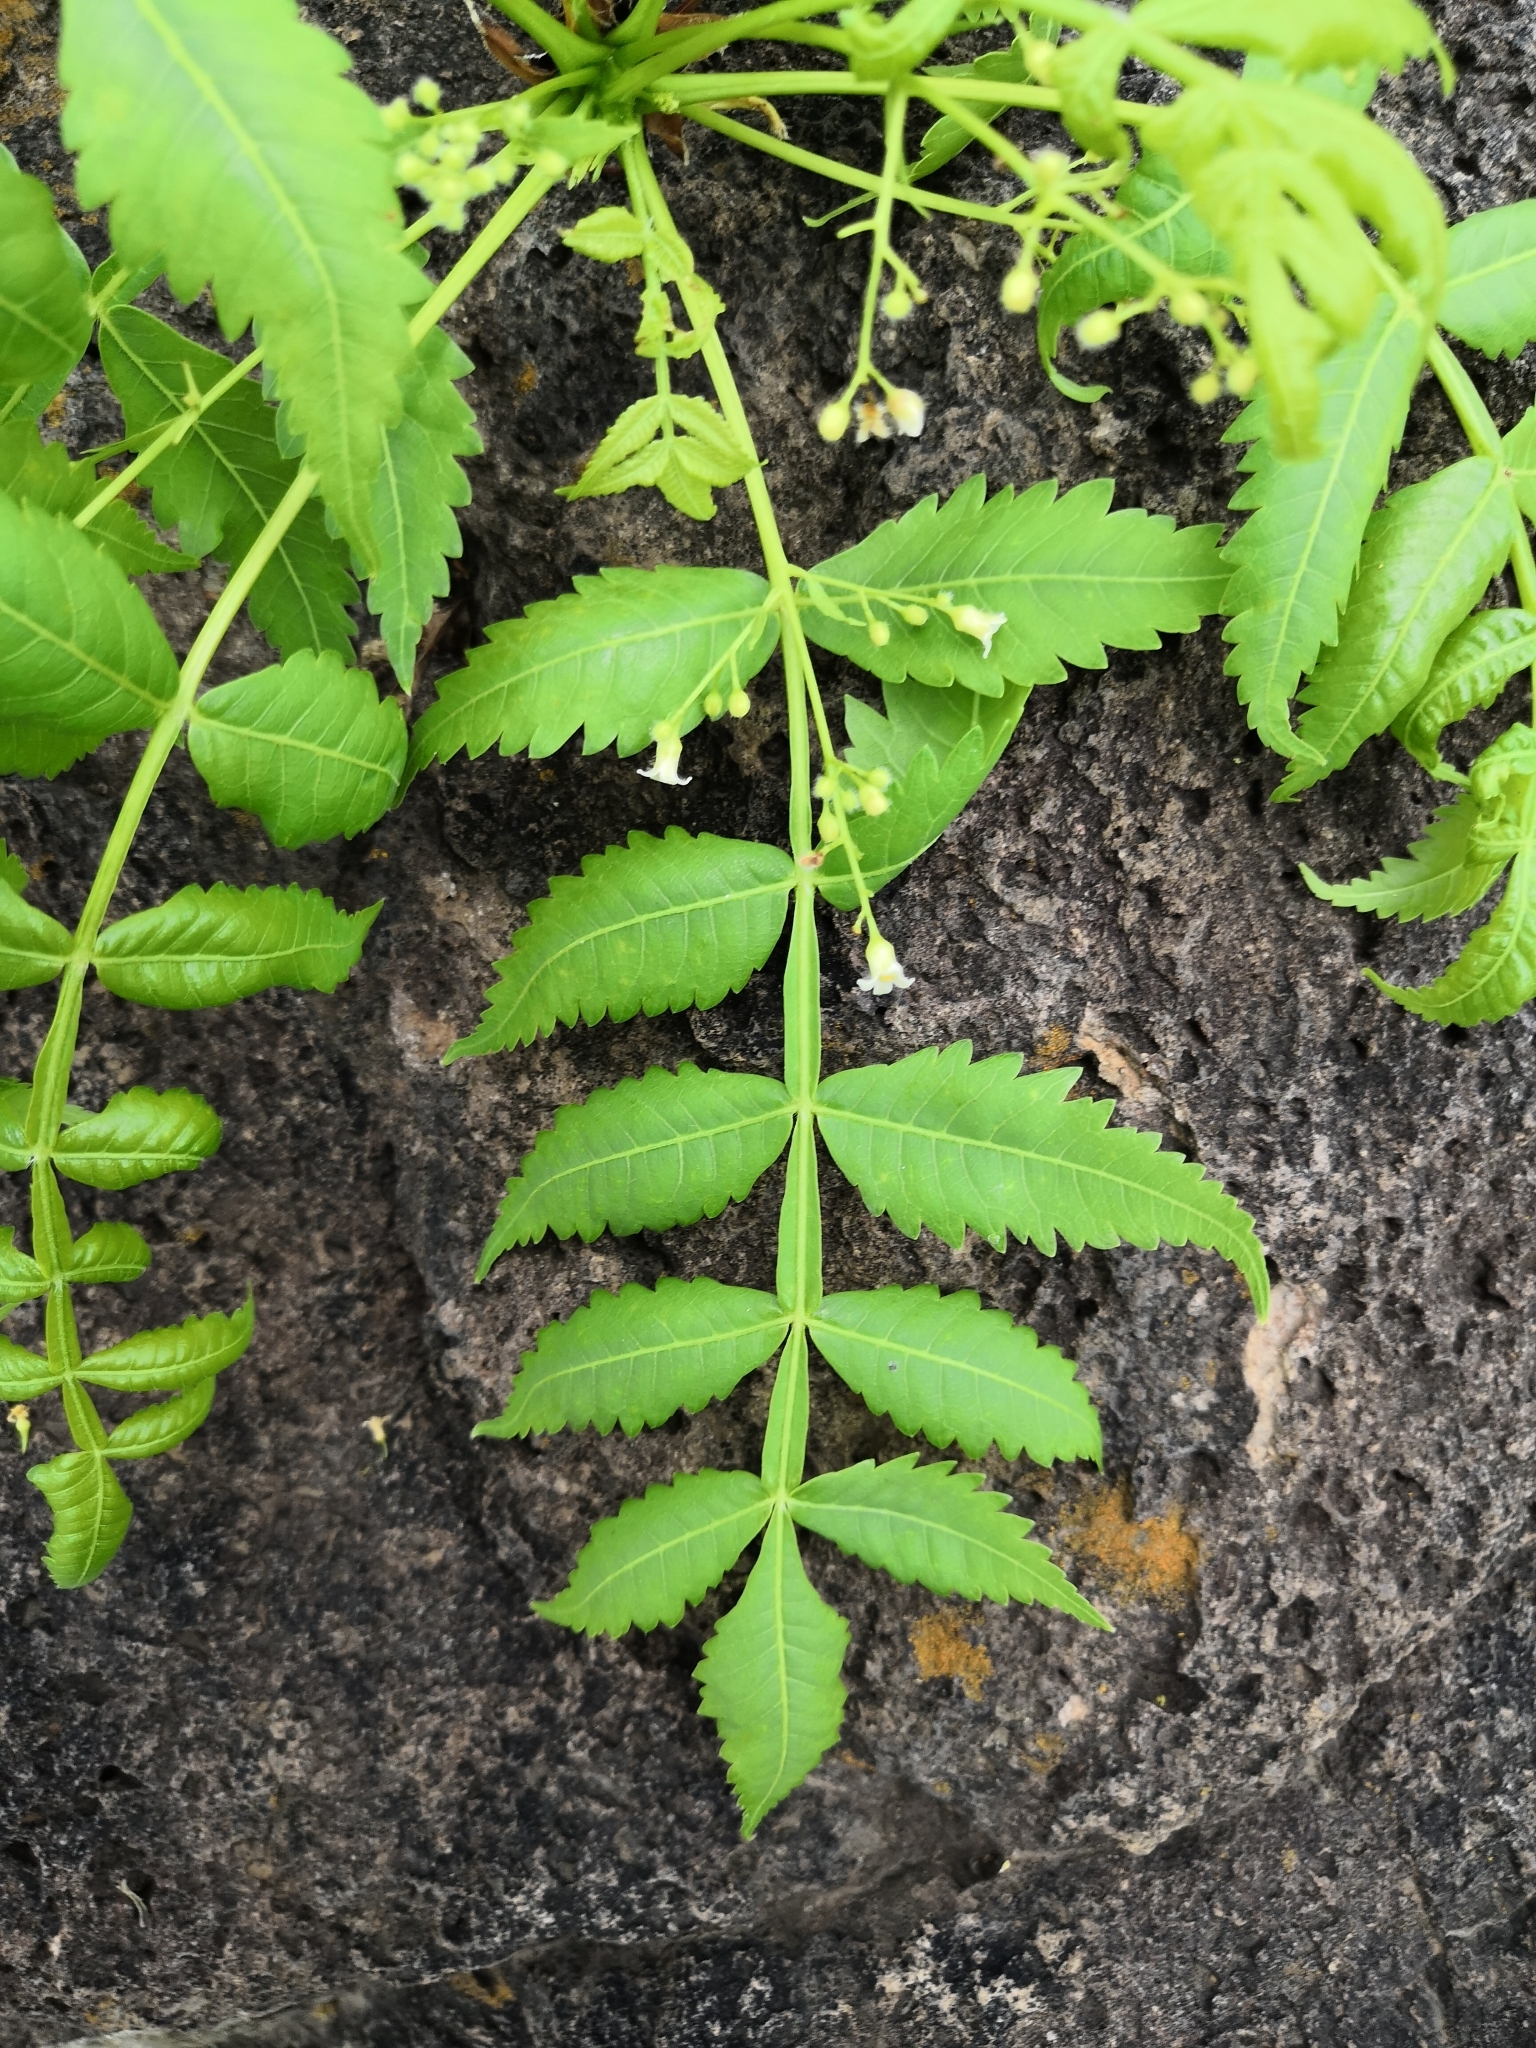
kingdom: Plantae
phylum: Tracheophyta
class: Magnoliopsida
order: Sapindales
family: Burseraceae
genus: Bursera
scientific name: Bursera penicillata
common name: Indian-lavender
